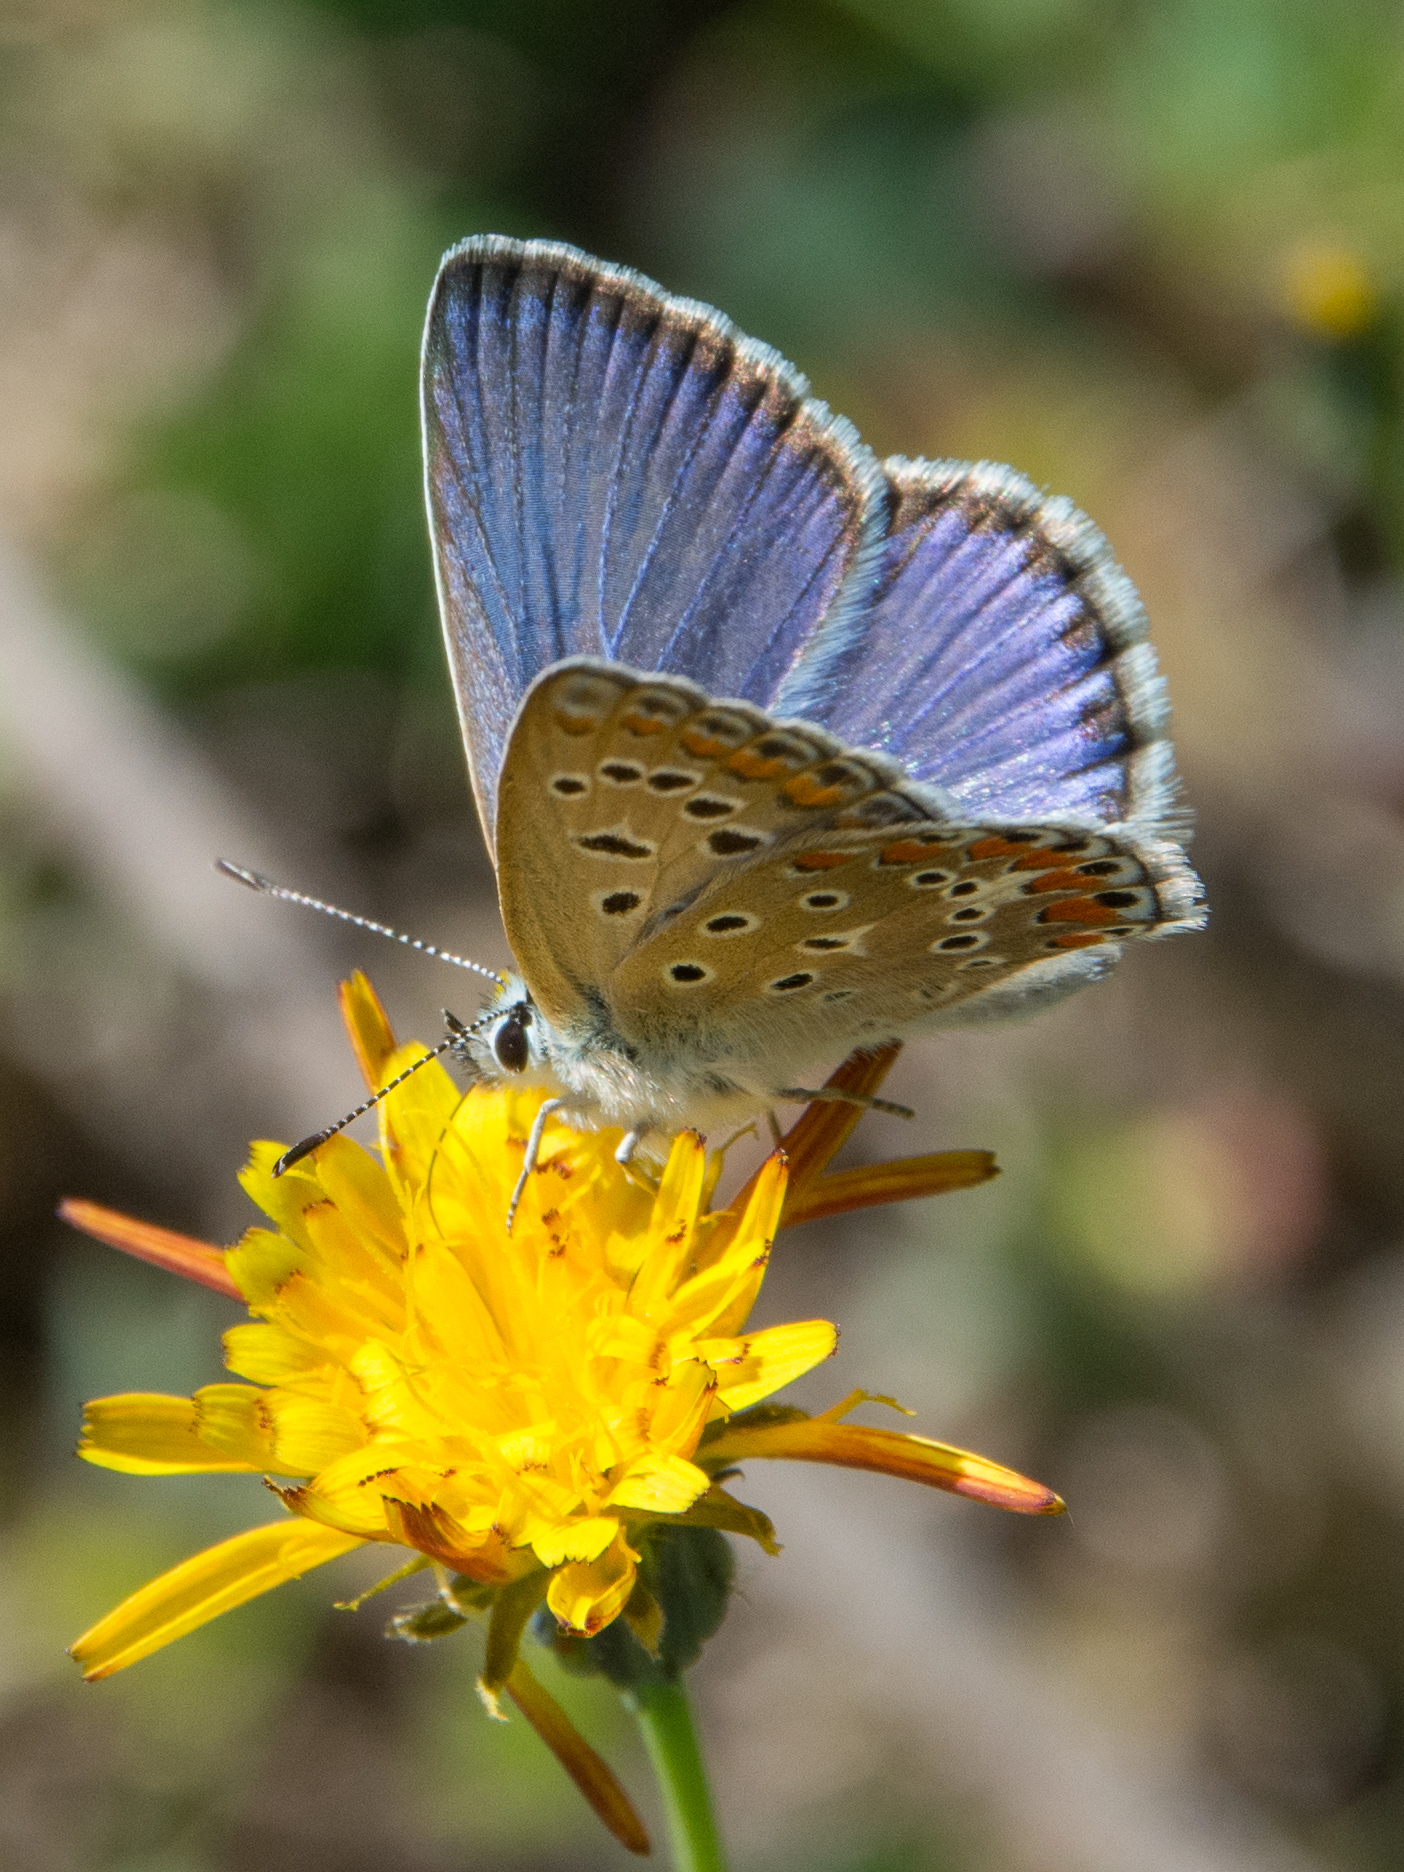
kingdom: Animalia
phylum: Arthropoda
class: Insecta
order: Lepidoptera
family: Lycaenidae
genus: Polyommatus
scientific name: Polyommatus celina
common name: Austaut's blue
